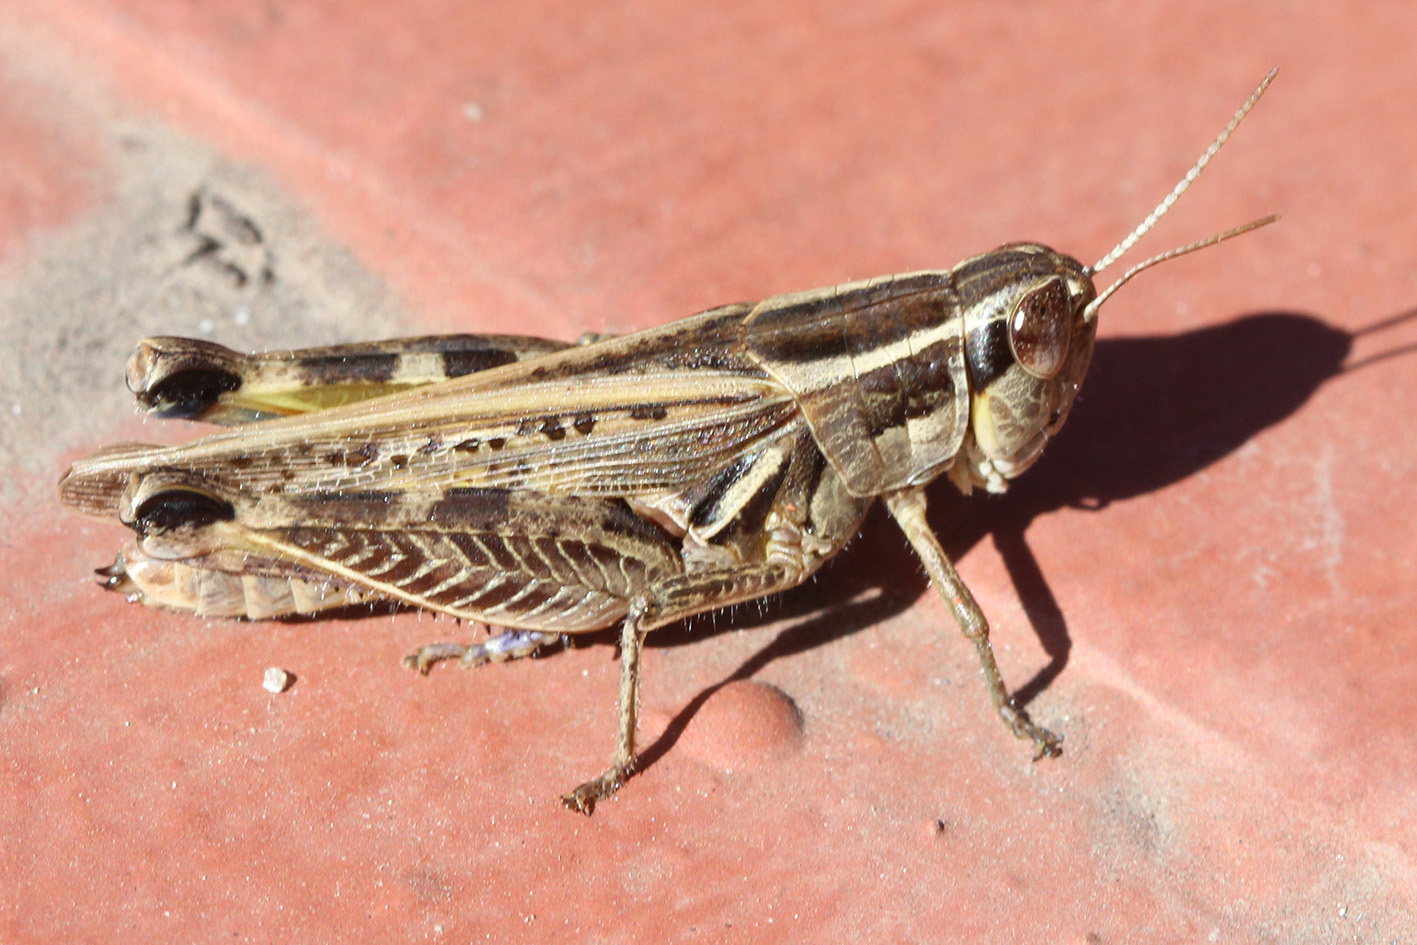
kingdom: Animalia
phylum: Arthropoda
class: Insecta
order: Orthoptera
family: Acrididae
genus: Dichroplus
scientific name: Dichroplus pratensis
